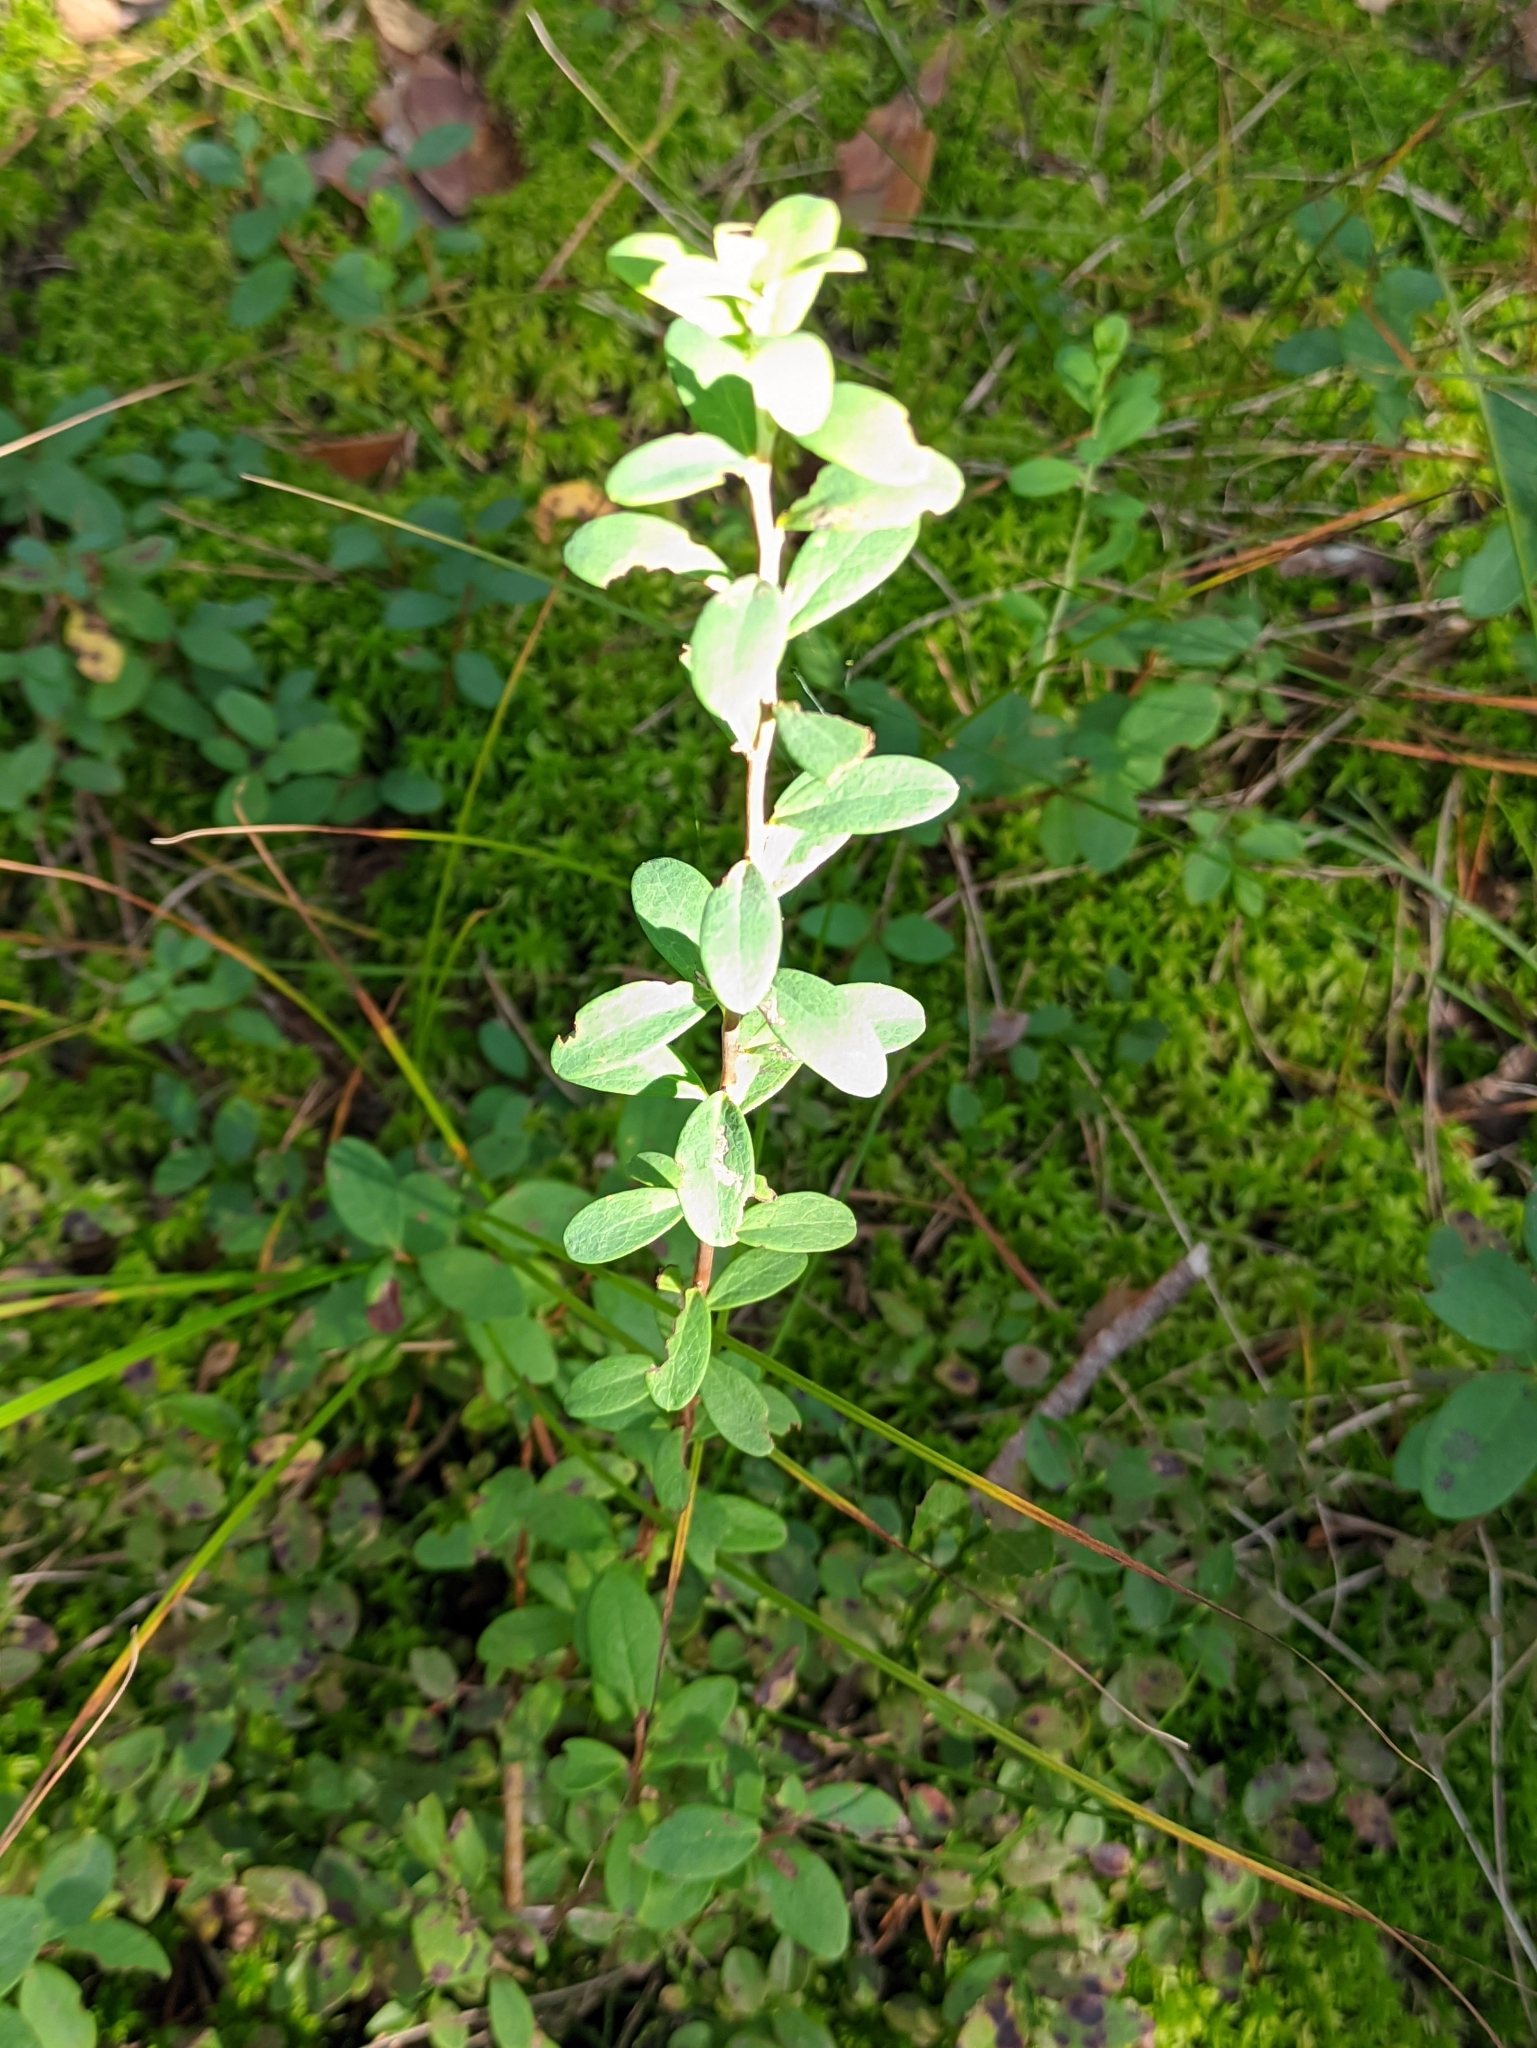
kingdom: Plantae
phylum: Tracheophyta
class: Magnoliopsida
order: Ericales
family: Ericaceae
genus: Vaccinium
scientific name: Vaccinium uliginosum
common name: Bog bilberry
